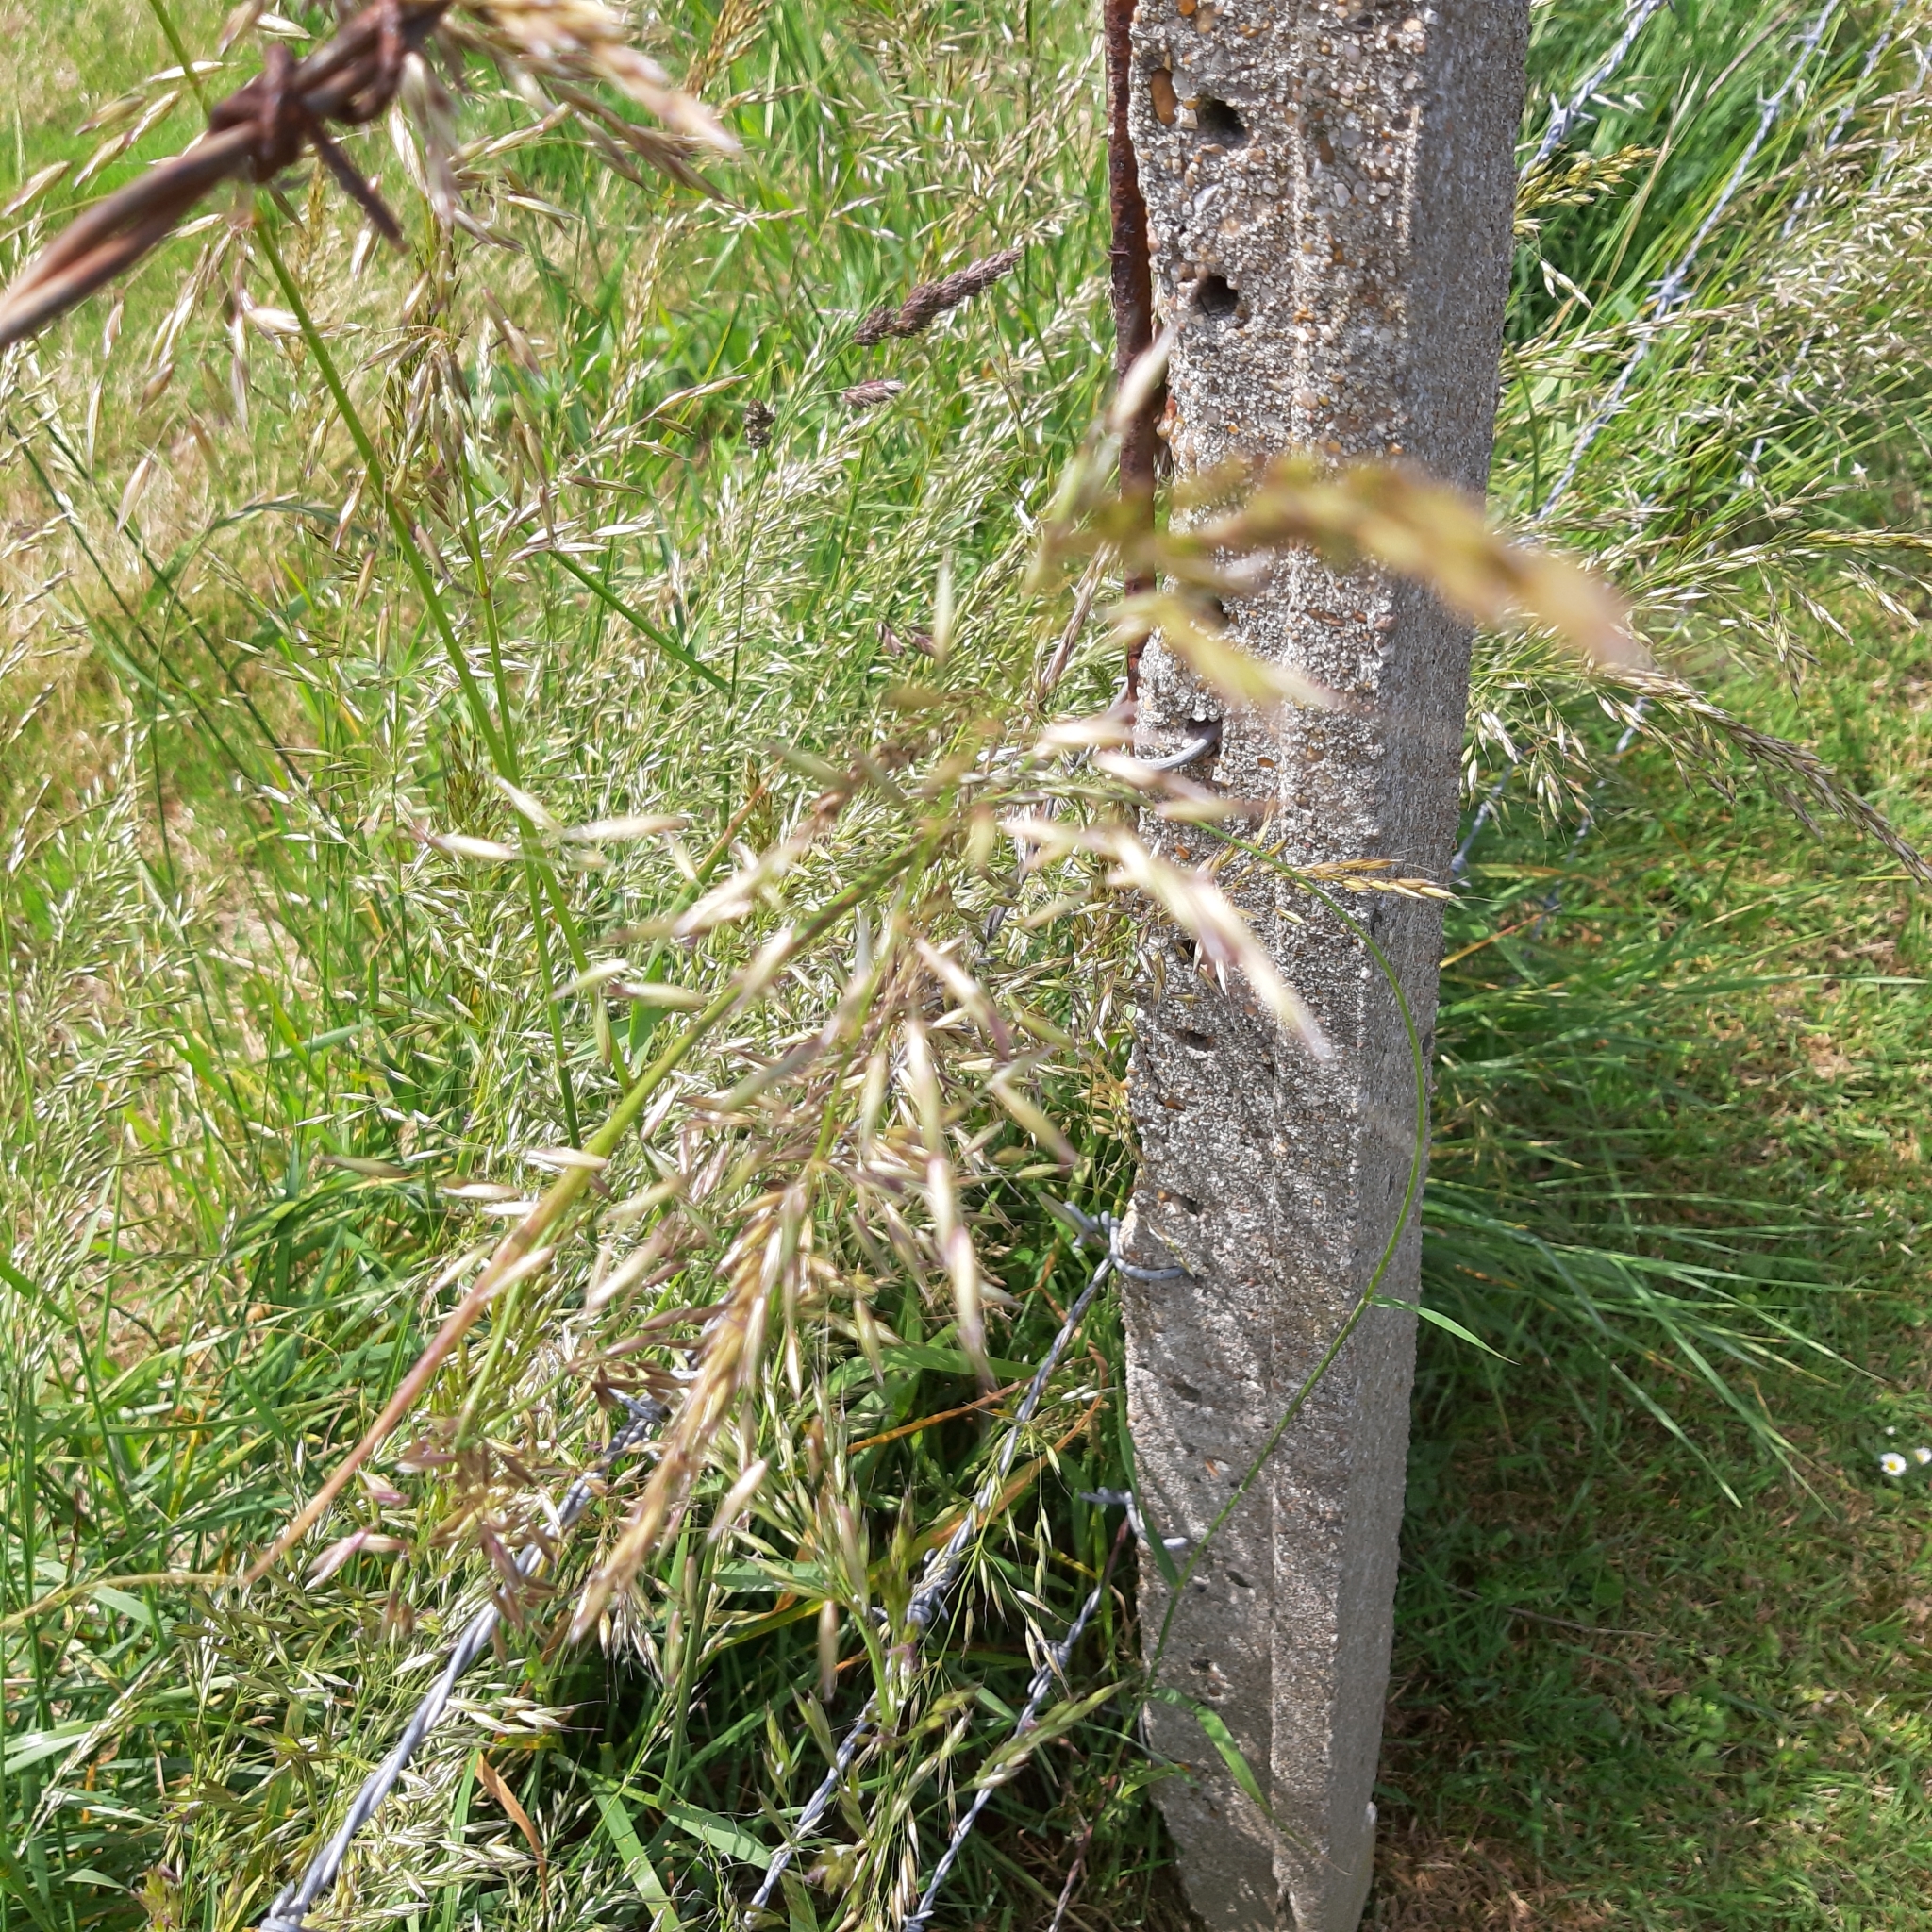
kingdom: Plantae
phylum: Tracheophyta
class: Liliopsida
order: Poales
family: Poaceae
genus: Arrhenatherum
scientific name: Arrhenatherum elatius
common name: Tall oatgrass
